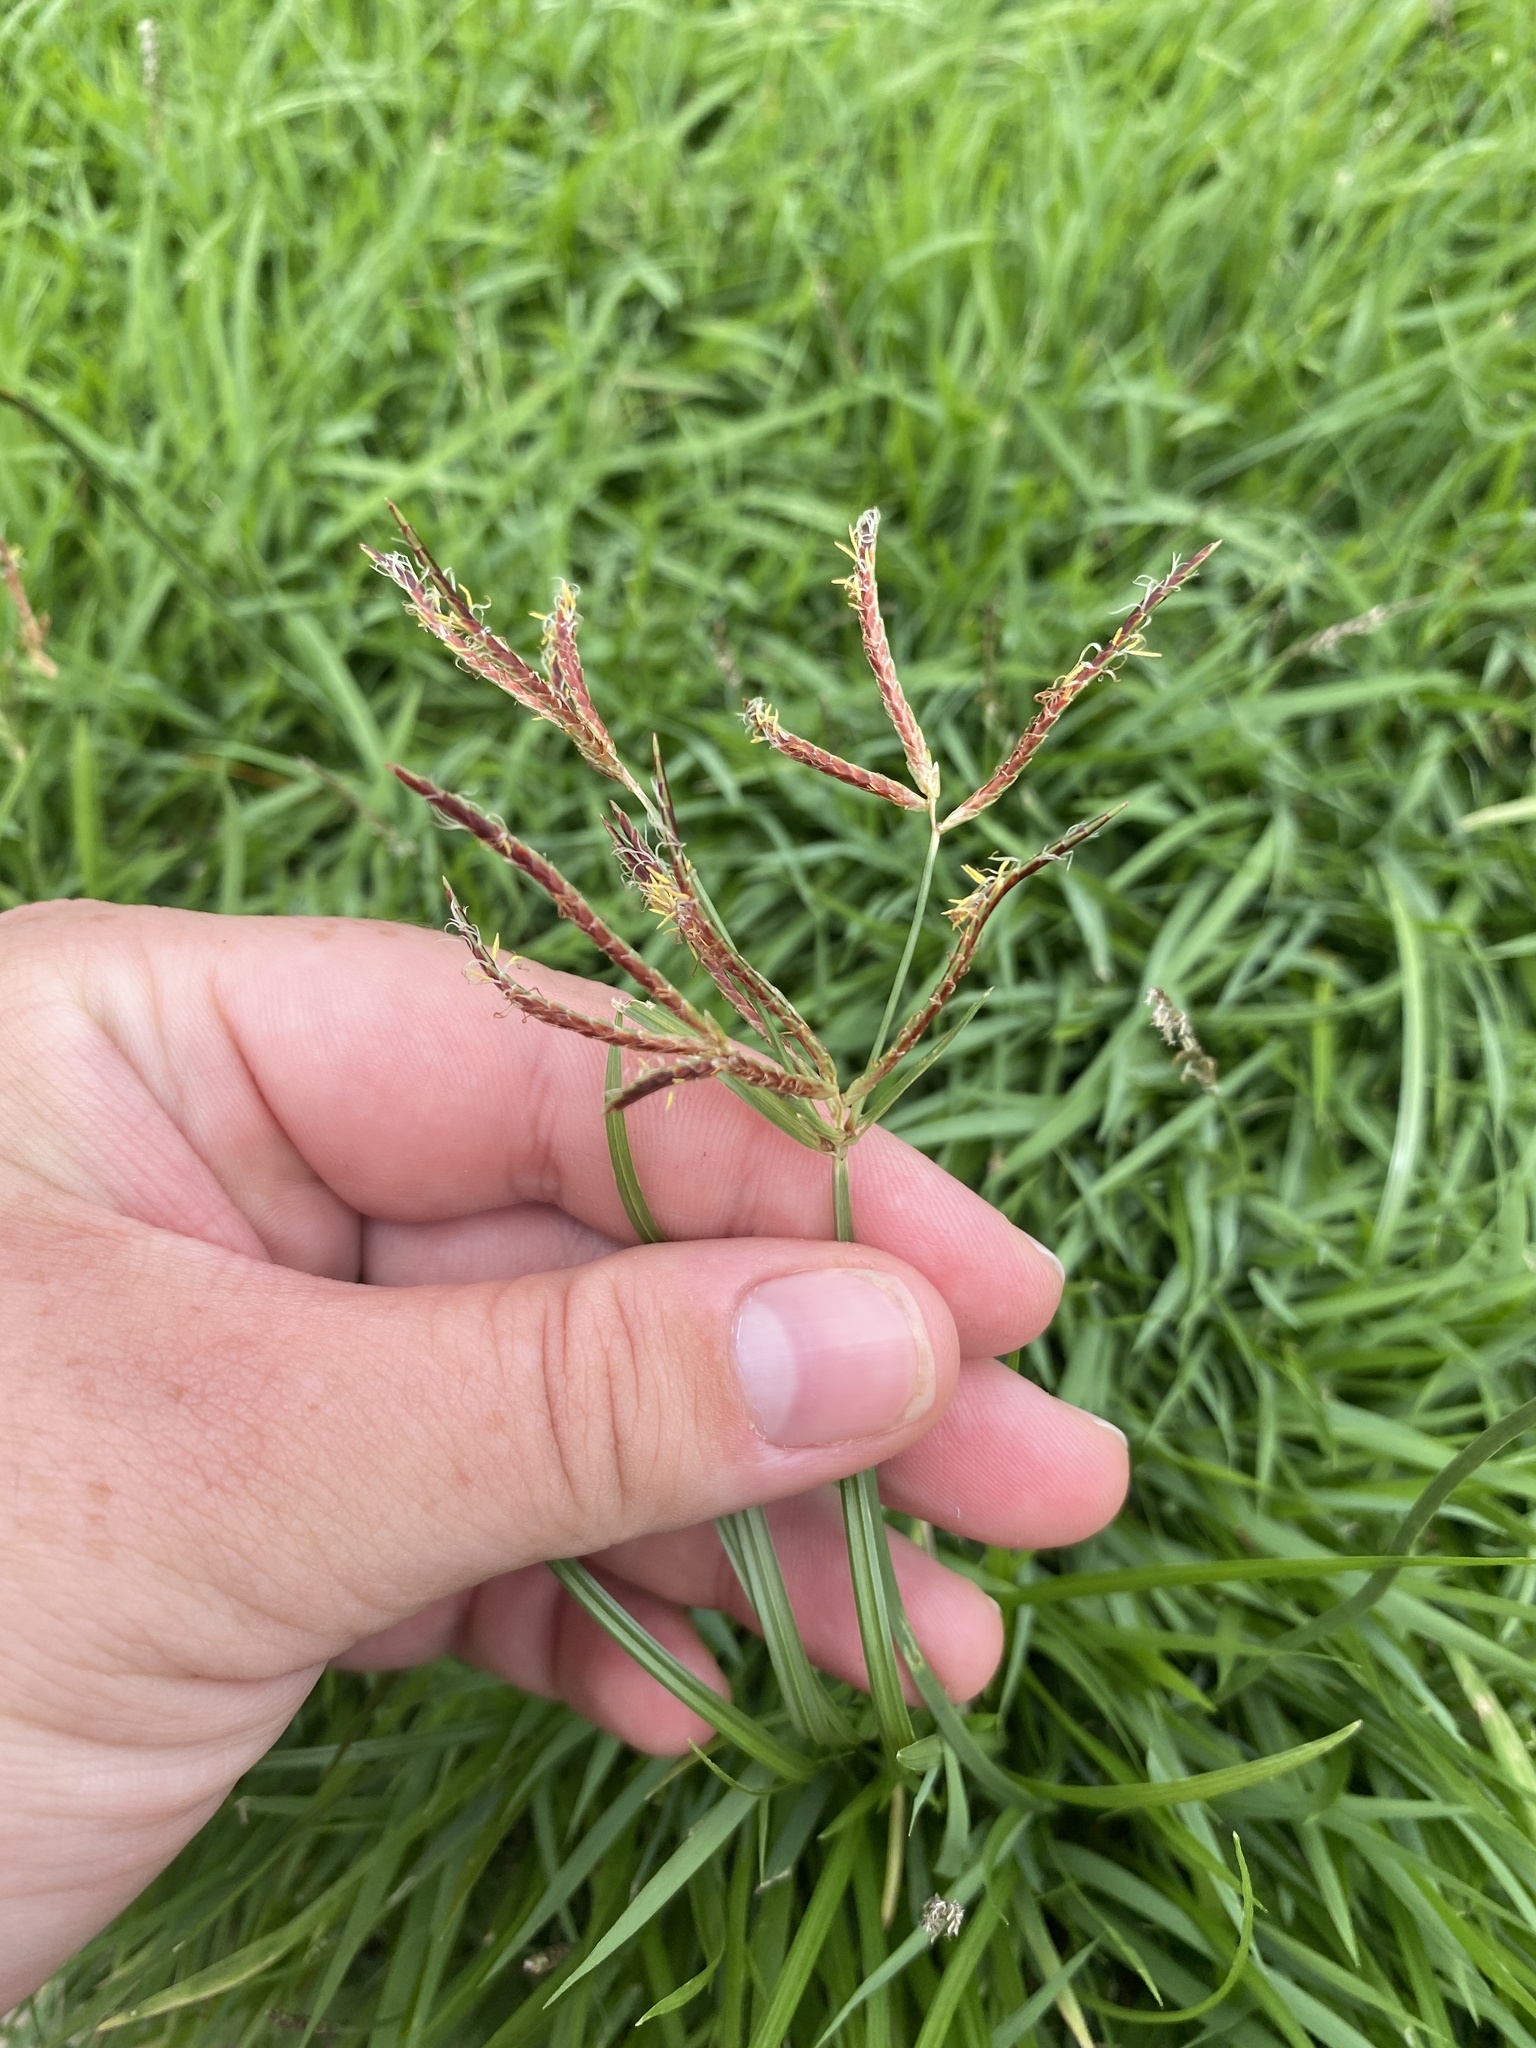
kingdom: Plantae
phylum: Tracheophyta
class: Liliopsida
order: Poales
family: Cyperaceae
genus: Cyperus
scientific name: Cyperus rotundus
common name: Nutgrass
